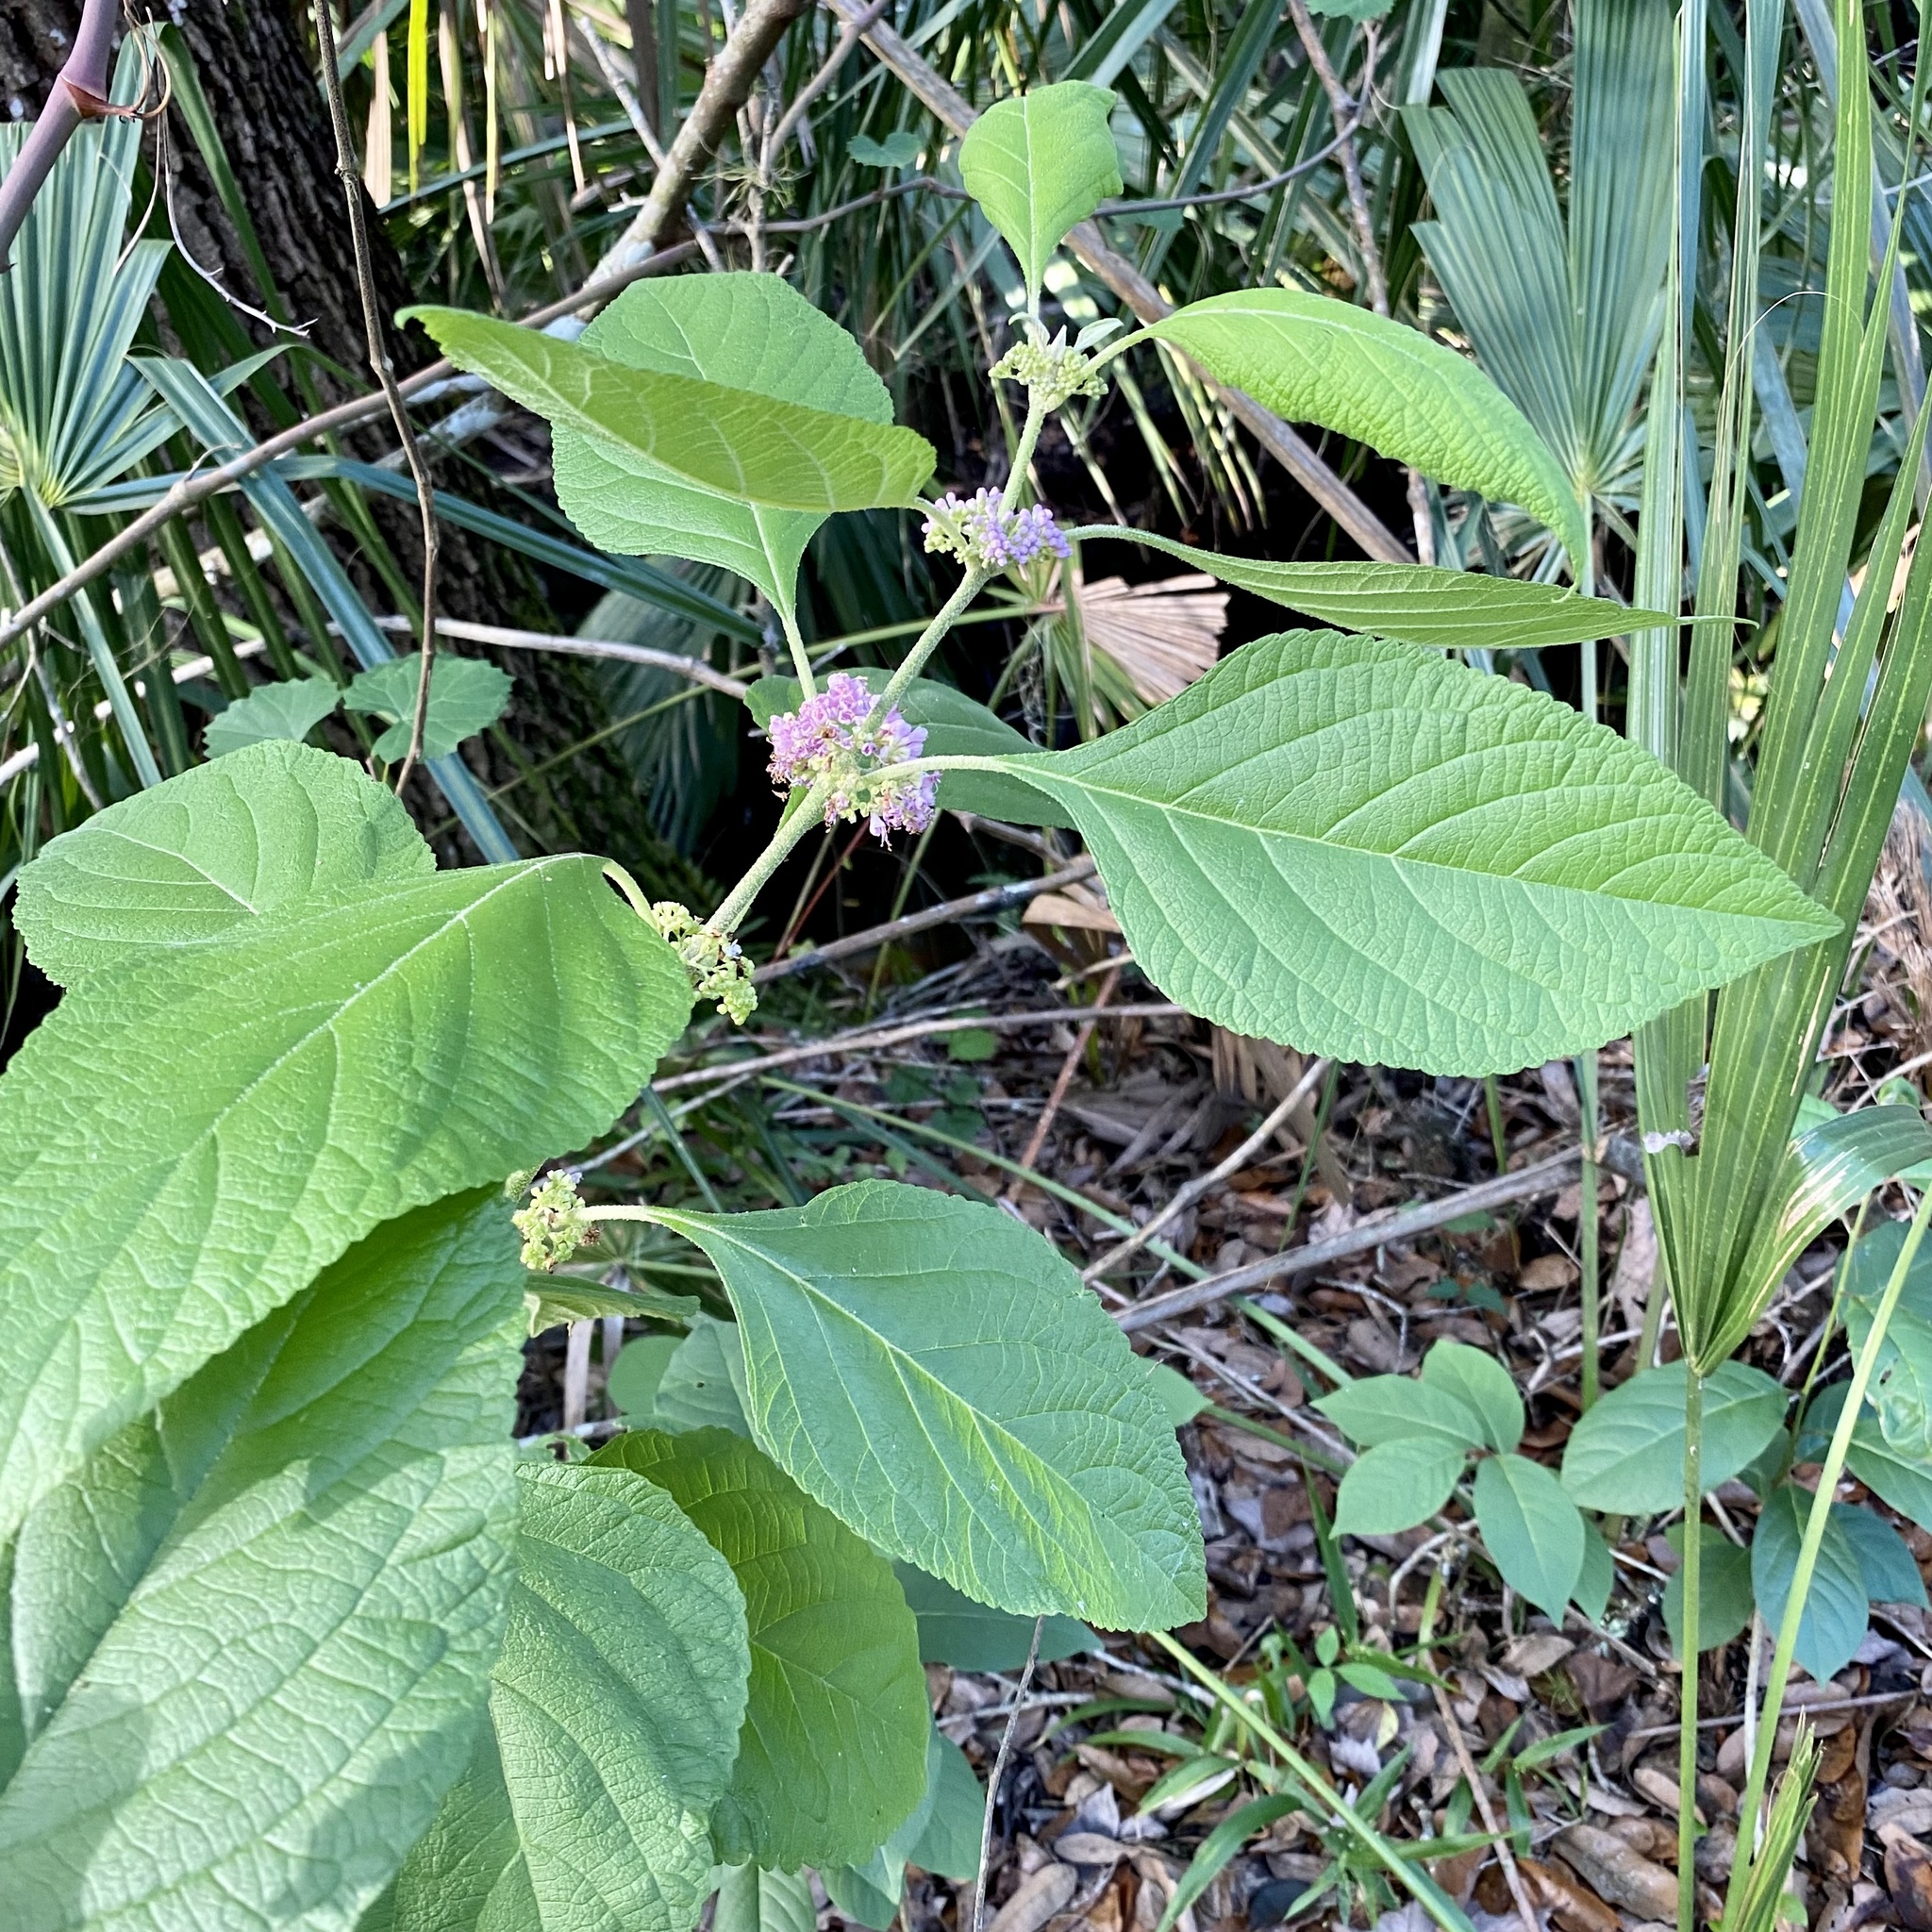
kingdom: Plantae
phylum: Tracheophyta
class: Magnoliopsida
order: Lamiales
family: Lamiaceae
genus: Callicarpa
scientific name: Callicarpa americana
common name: American beautyberry
